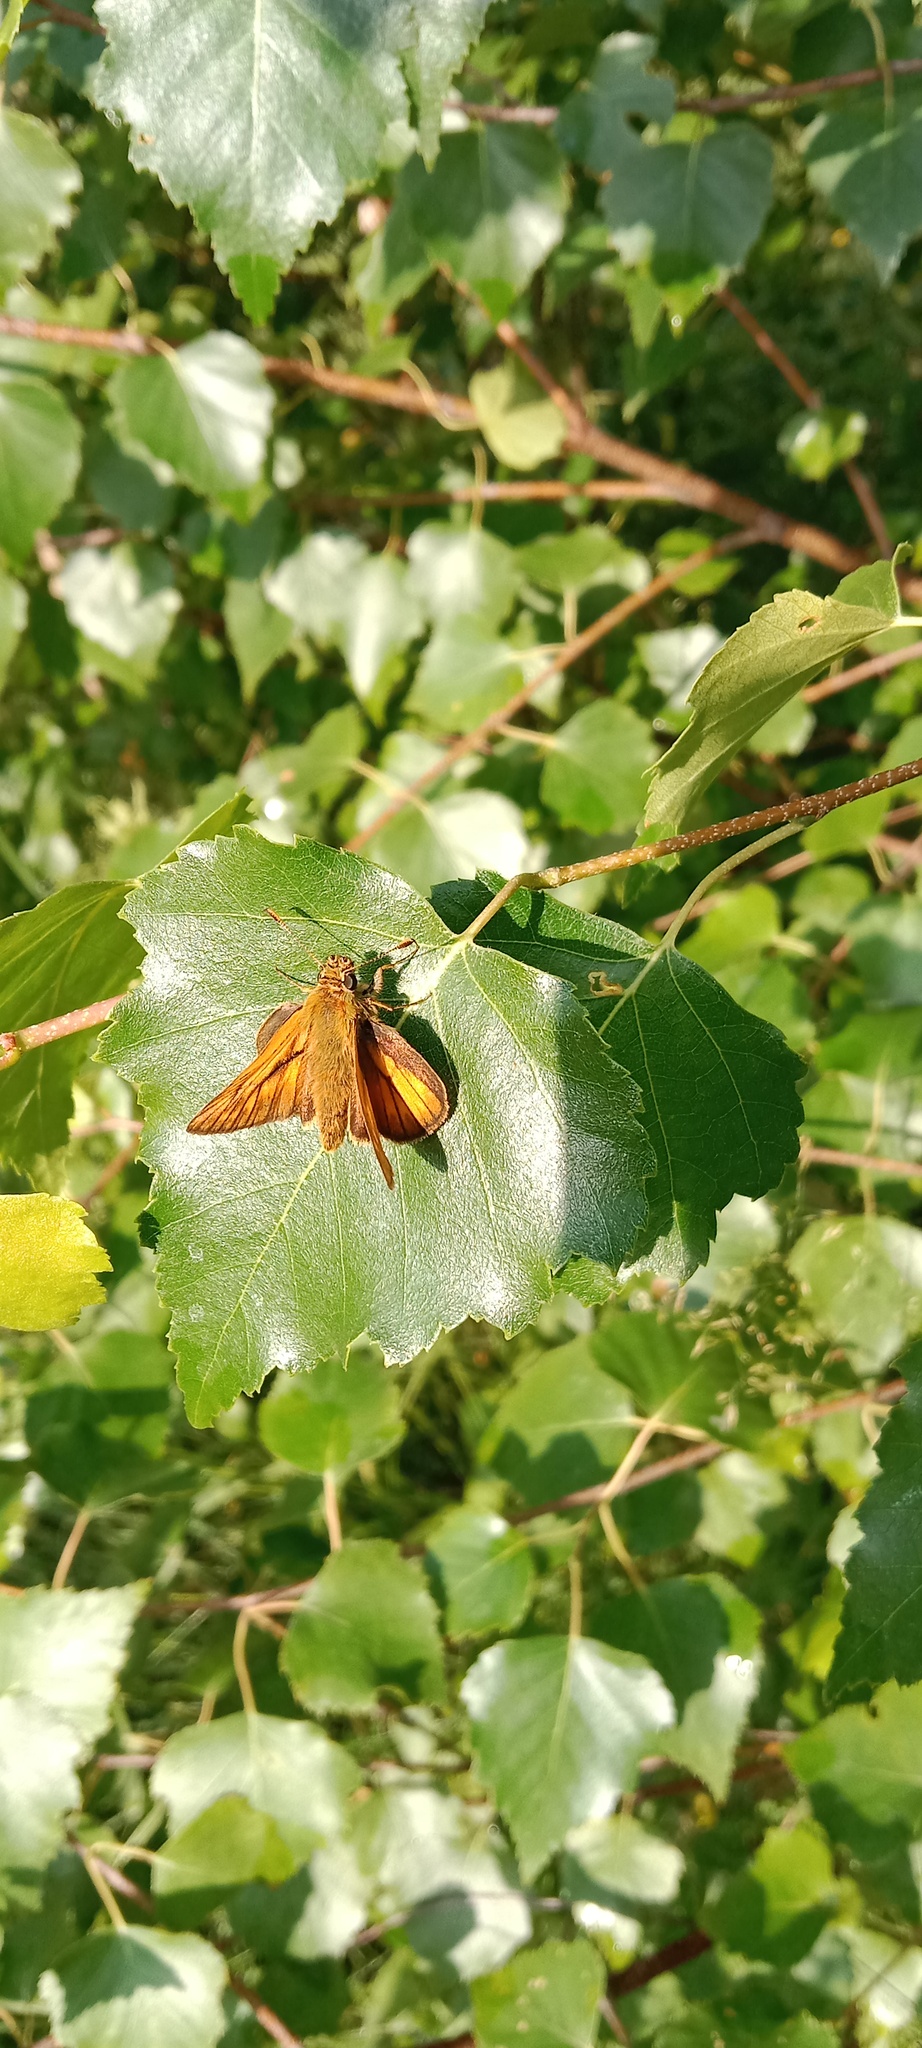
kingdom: Animalia
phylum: Arthropoda
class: Insecta
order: Lepidoptera
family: Hesperiidae
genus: Ochlodes
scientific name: Ochlodes venata
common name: Large skipper
